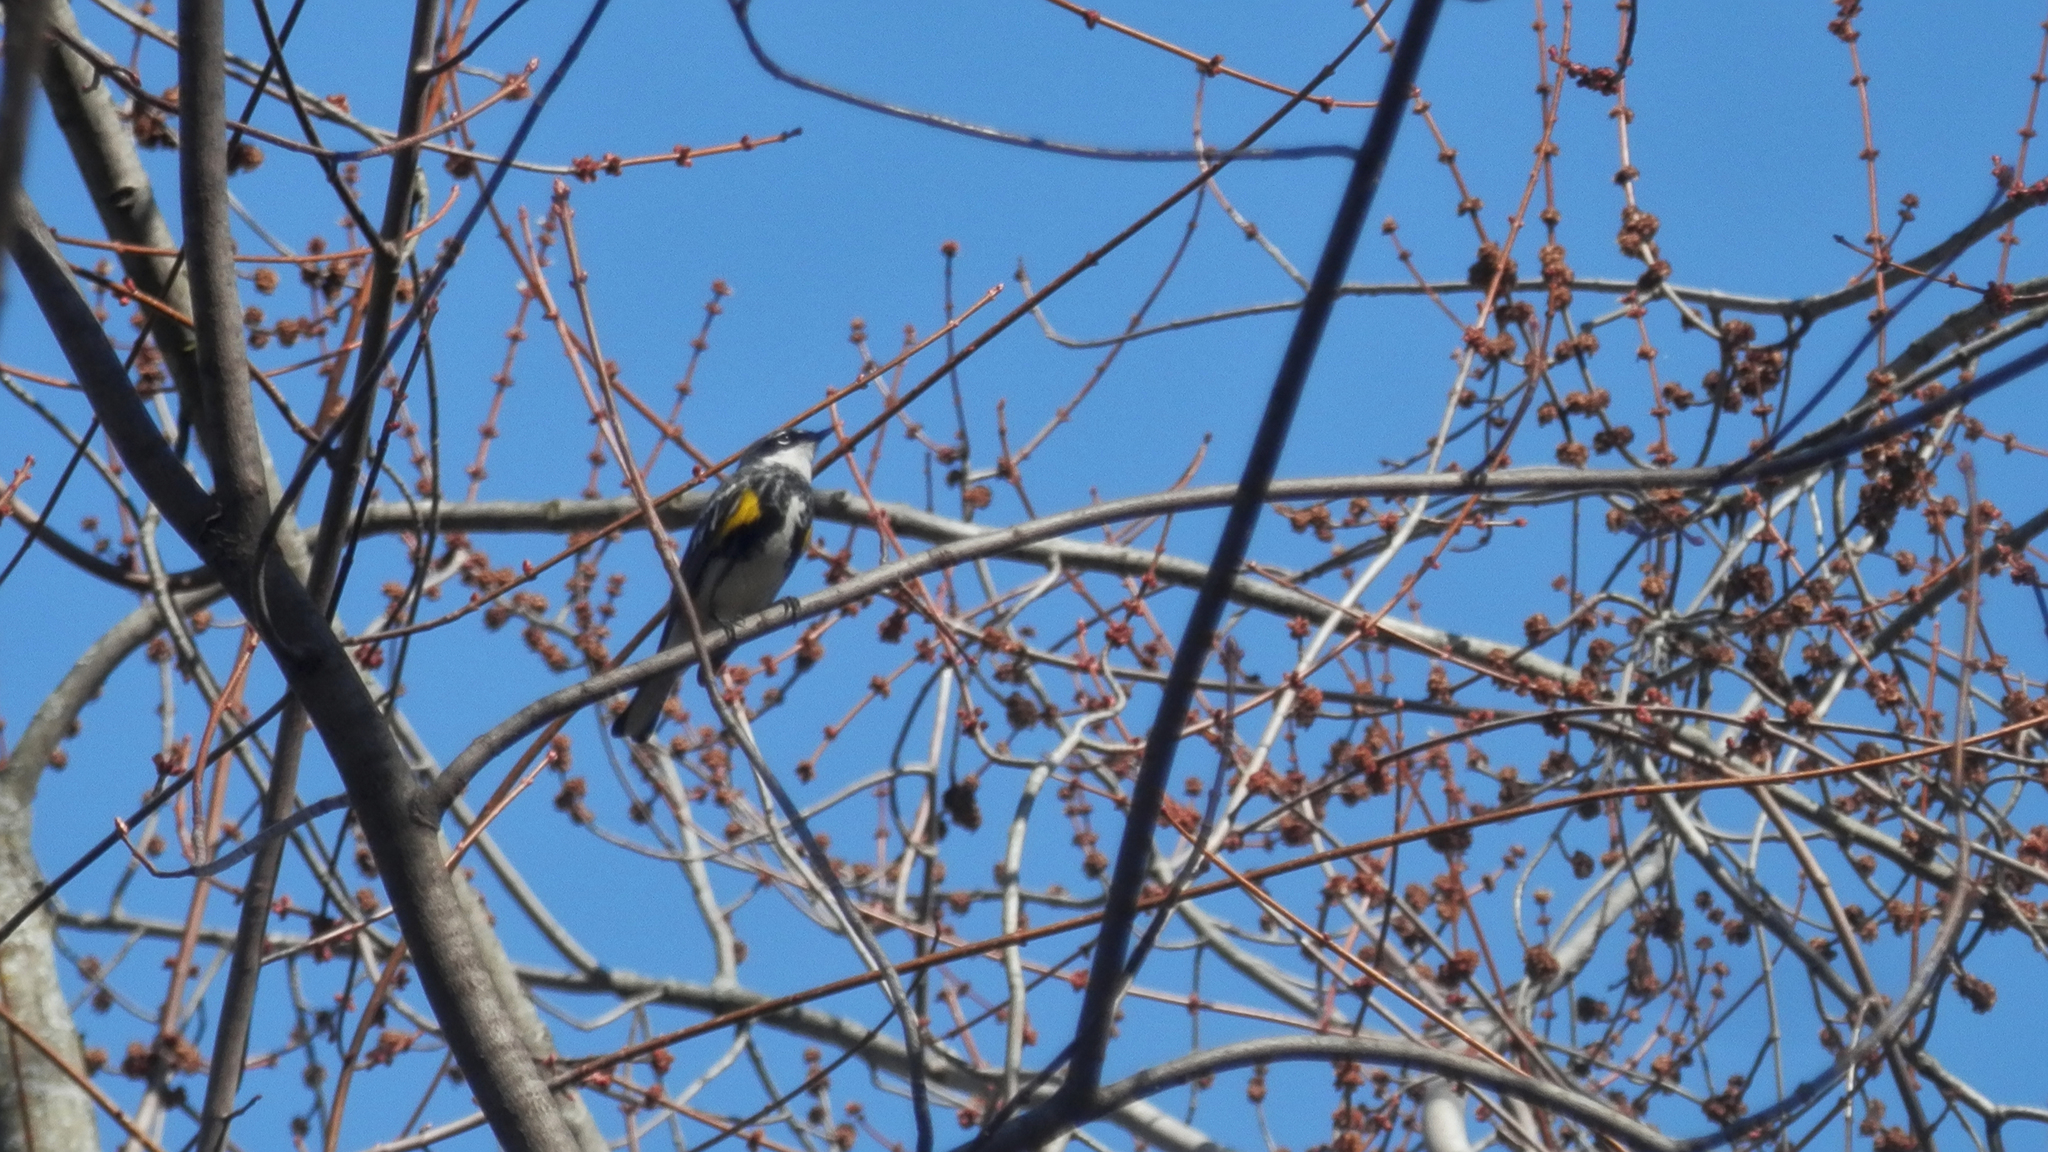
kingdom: Animalia
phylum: Chordata
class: Aves
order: Passeriformes
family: Parulidae
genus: Setophaga
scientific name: Setophaga coronata
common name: Myrtle warbler
